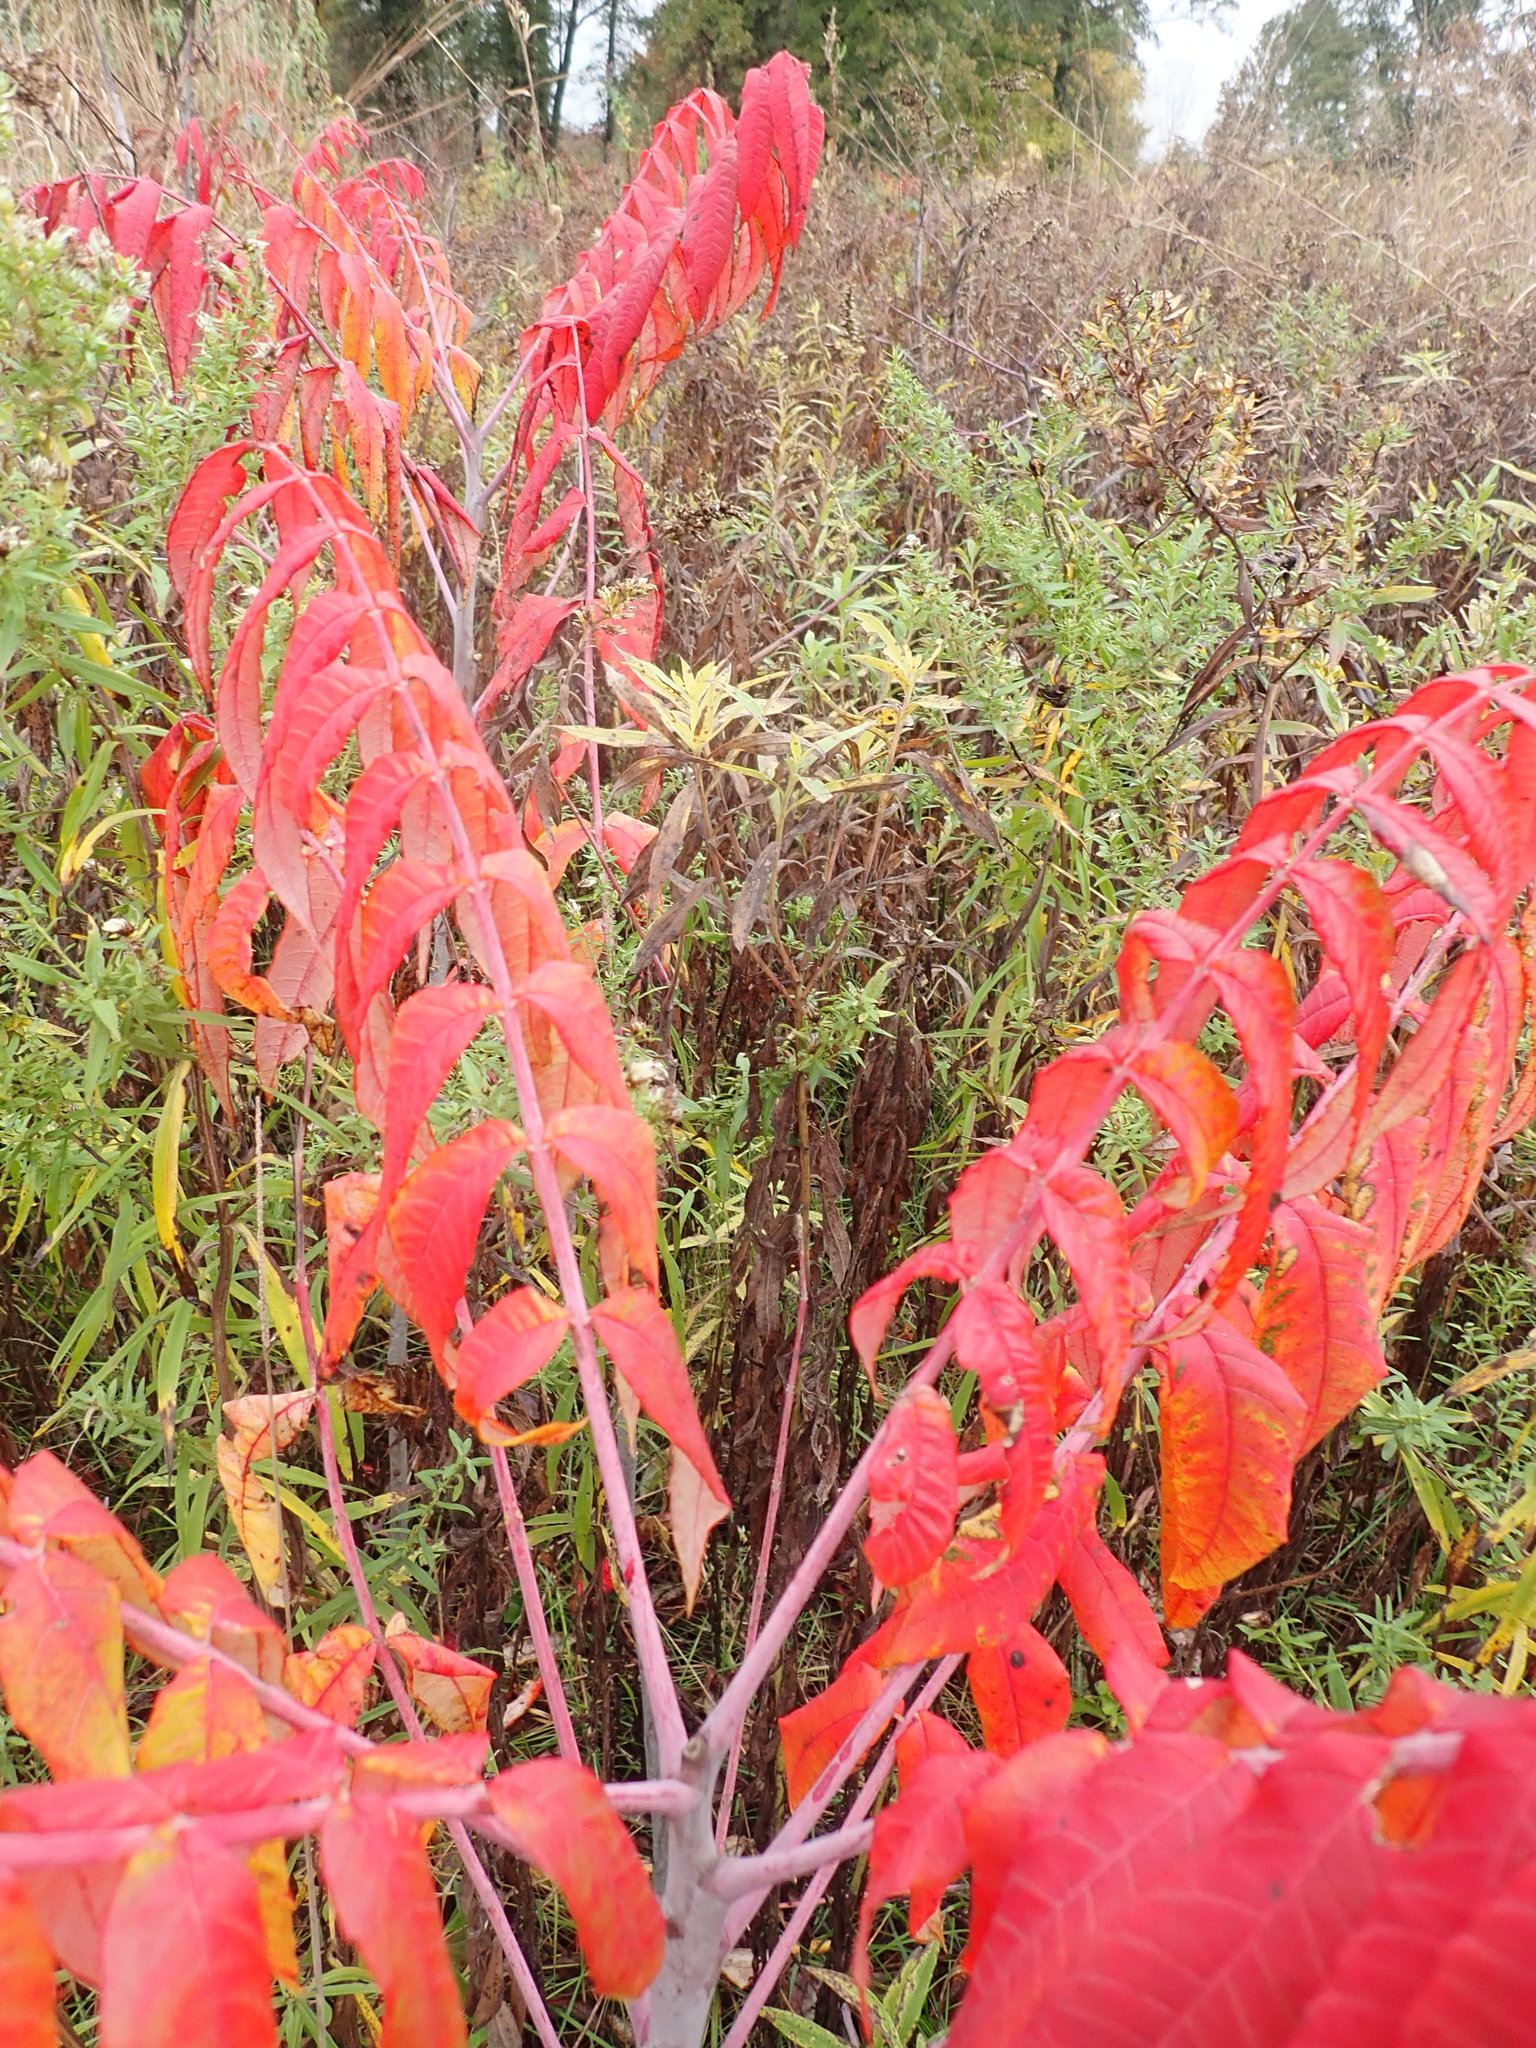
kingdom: Plantae
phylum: Tracheophyta
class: Magnoliopsida
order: Sapindales
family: Anacardiaceae
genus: Rhus
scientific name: Rhus glabra
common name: Scarlet sumac
